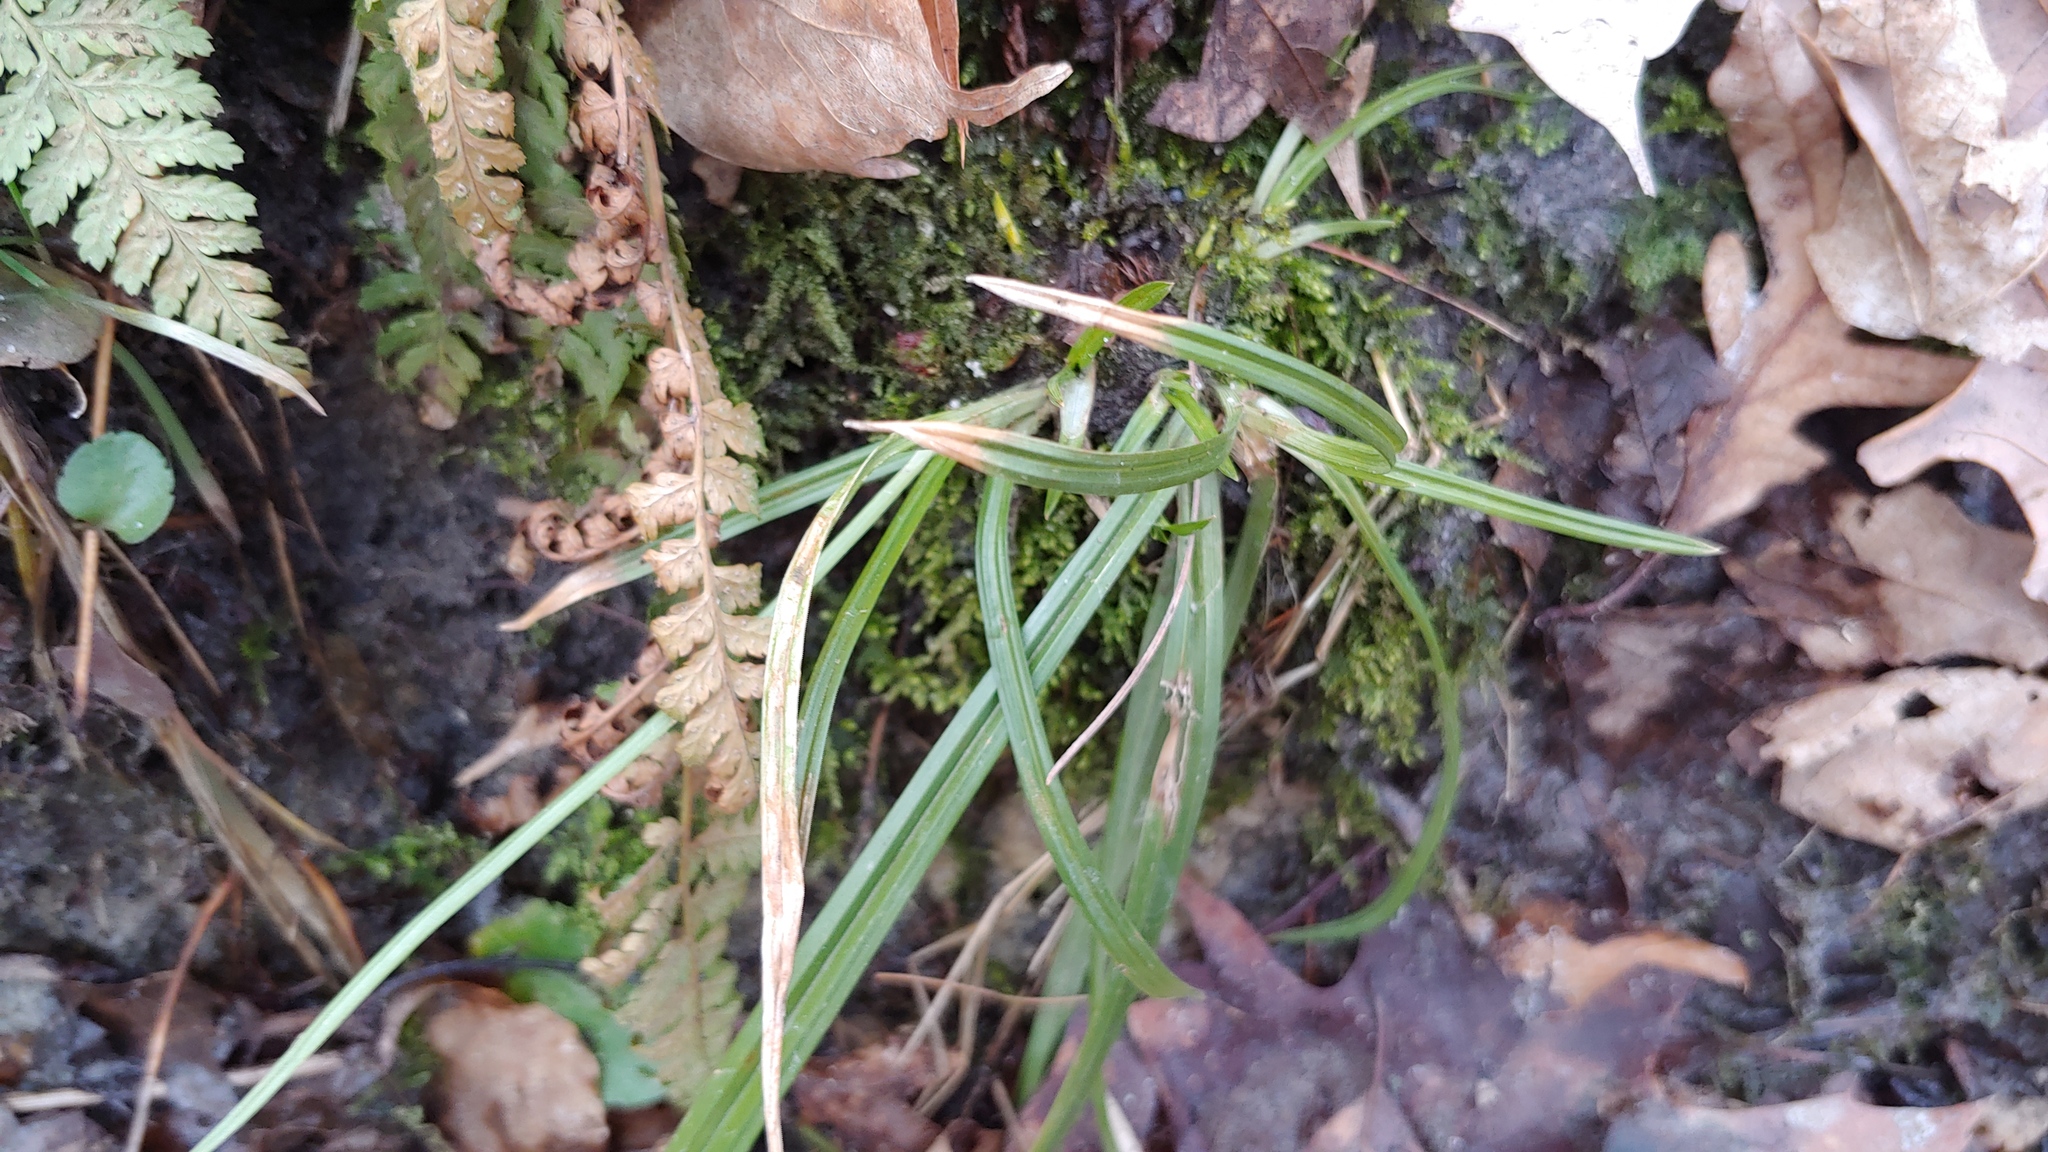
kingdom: Plantae
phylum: Tracheophyta
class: Liliopsida
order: Poales
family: Cyperaceae
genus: Carex
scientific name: Carex
